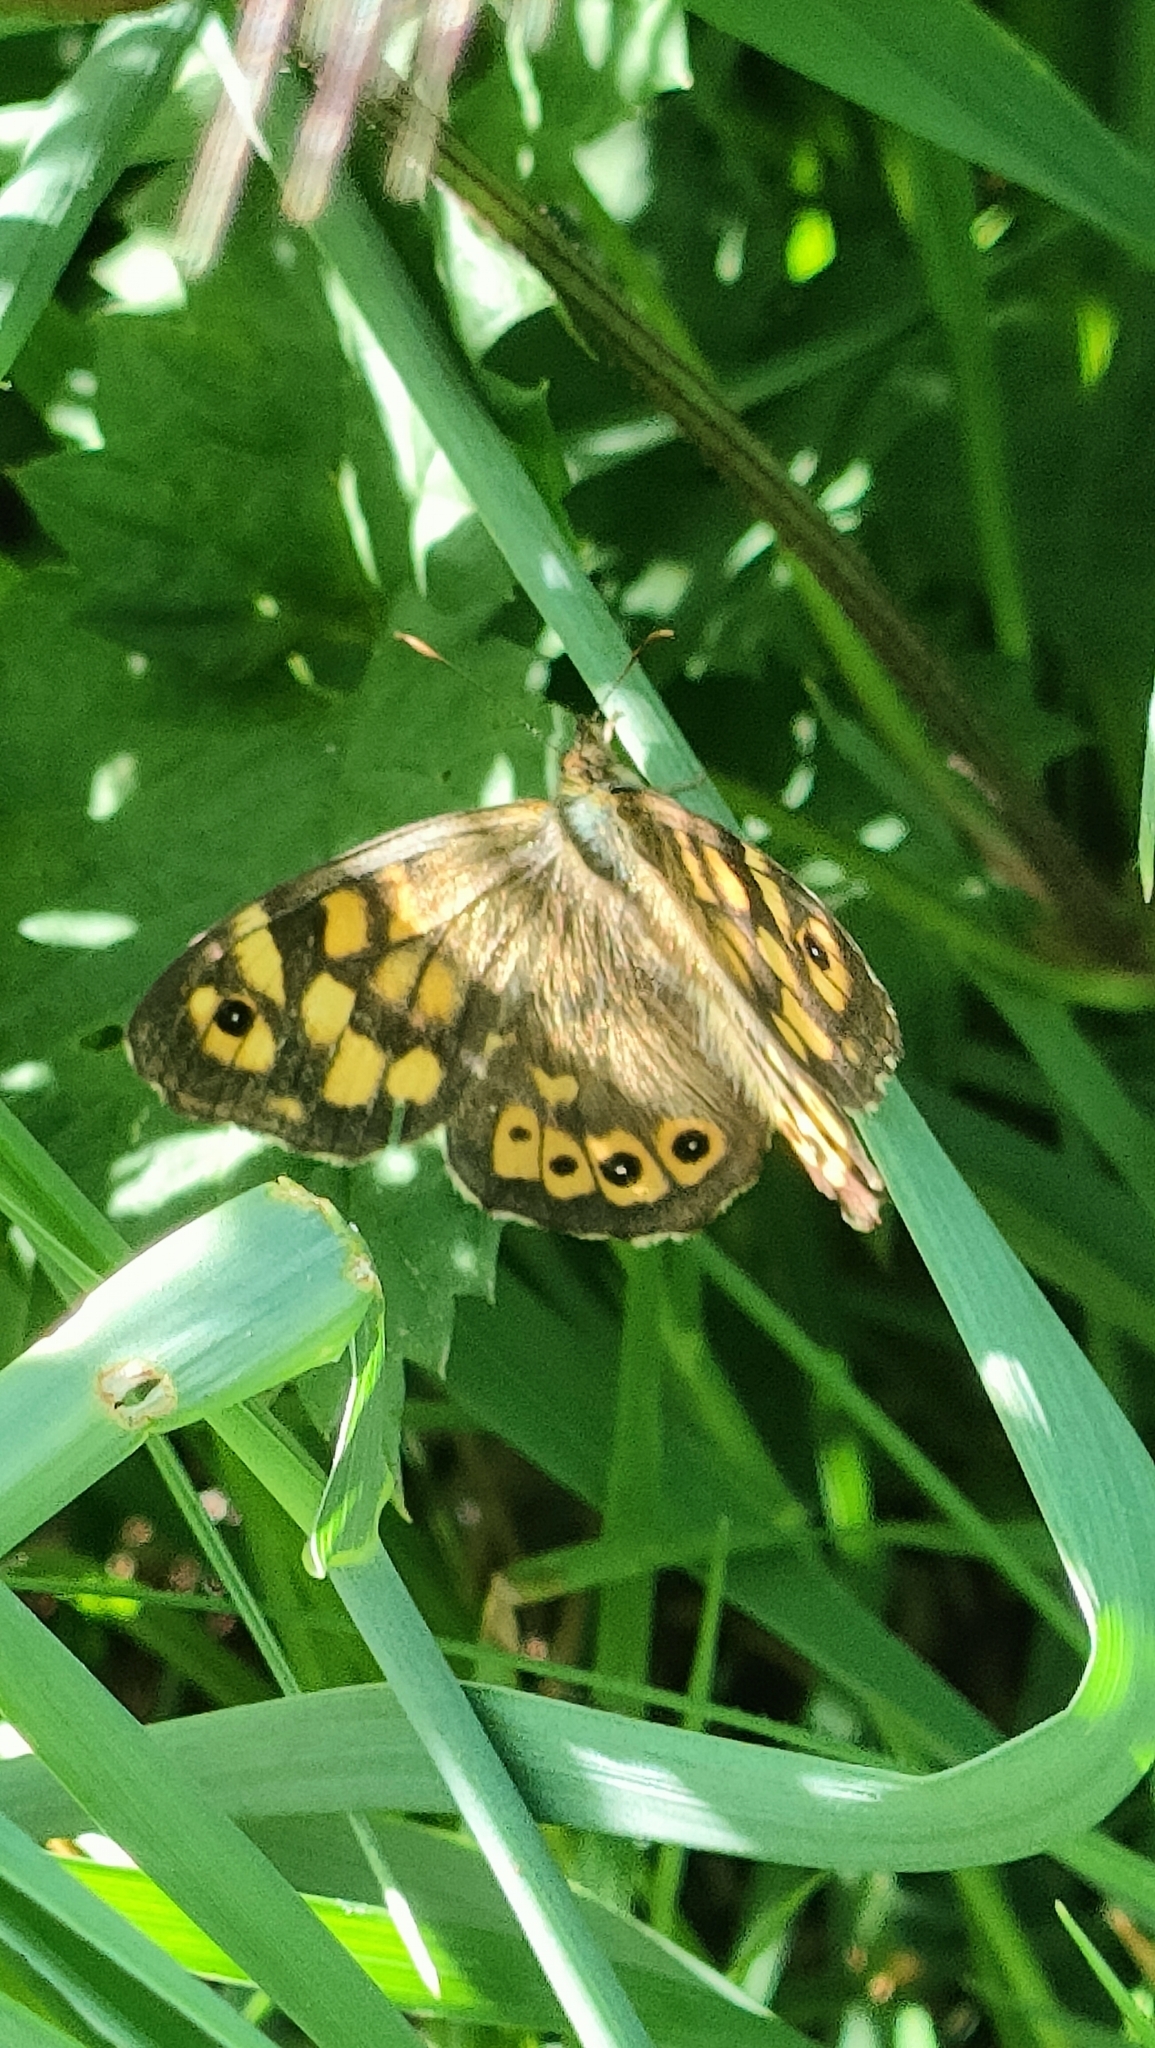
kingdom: Animalia
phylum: Arthropoda
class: Insecta
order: Lepidoptera
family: Nymphalidae
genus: Pararge
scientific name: Pararge aegeria
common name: Speckled wood
